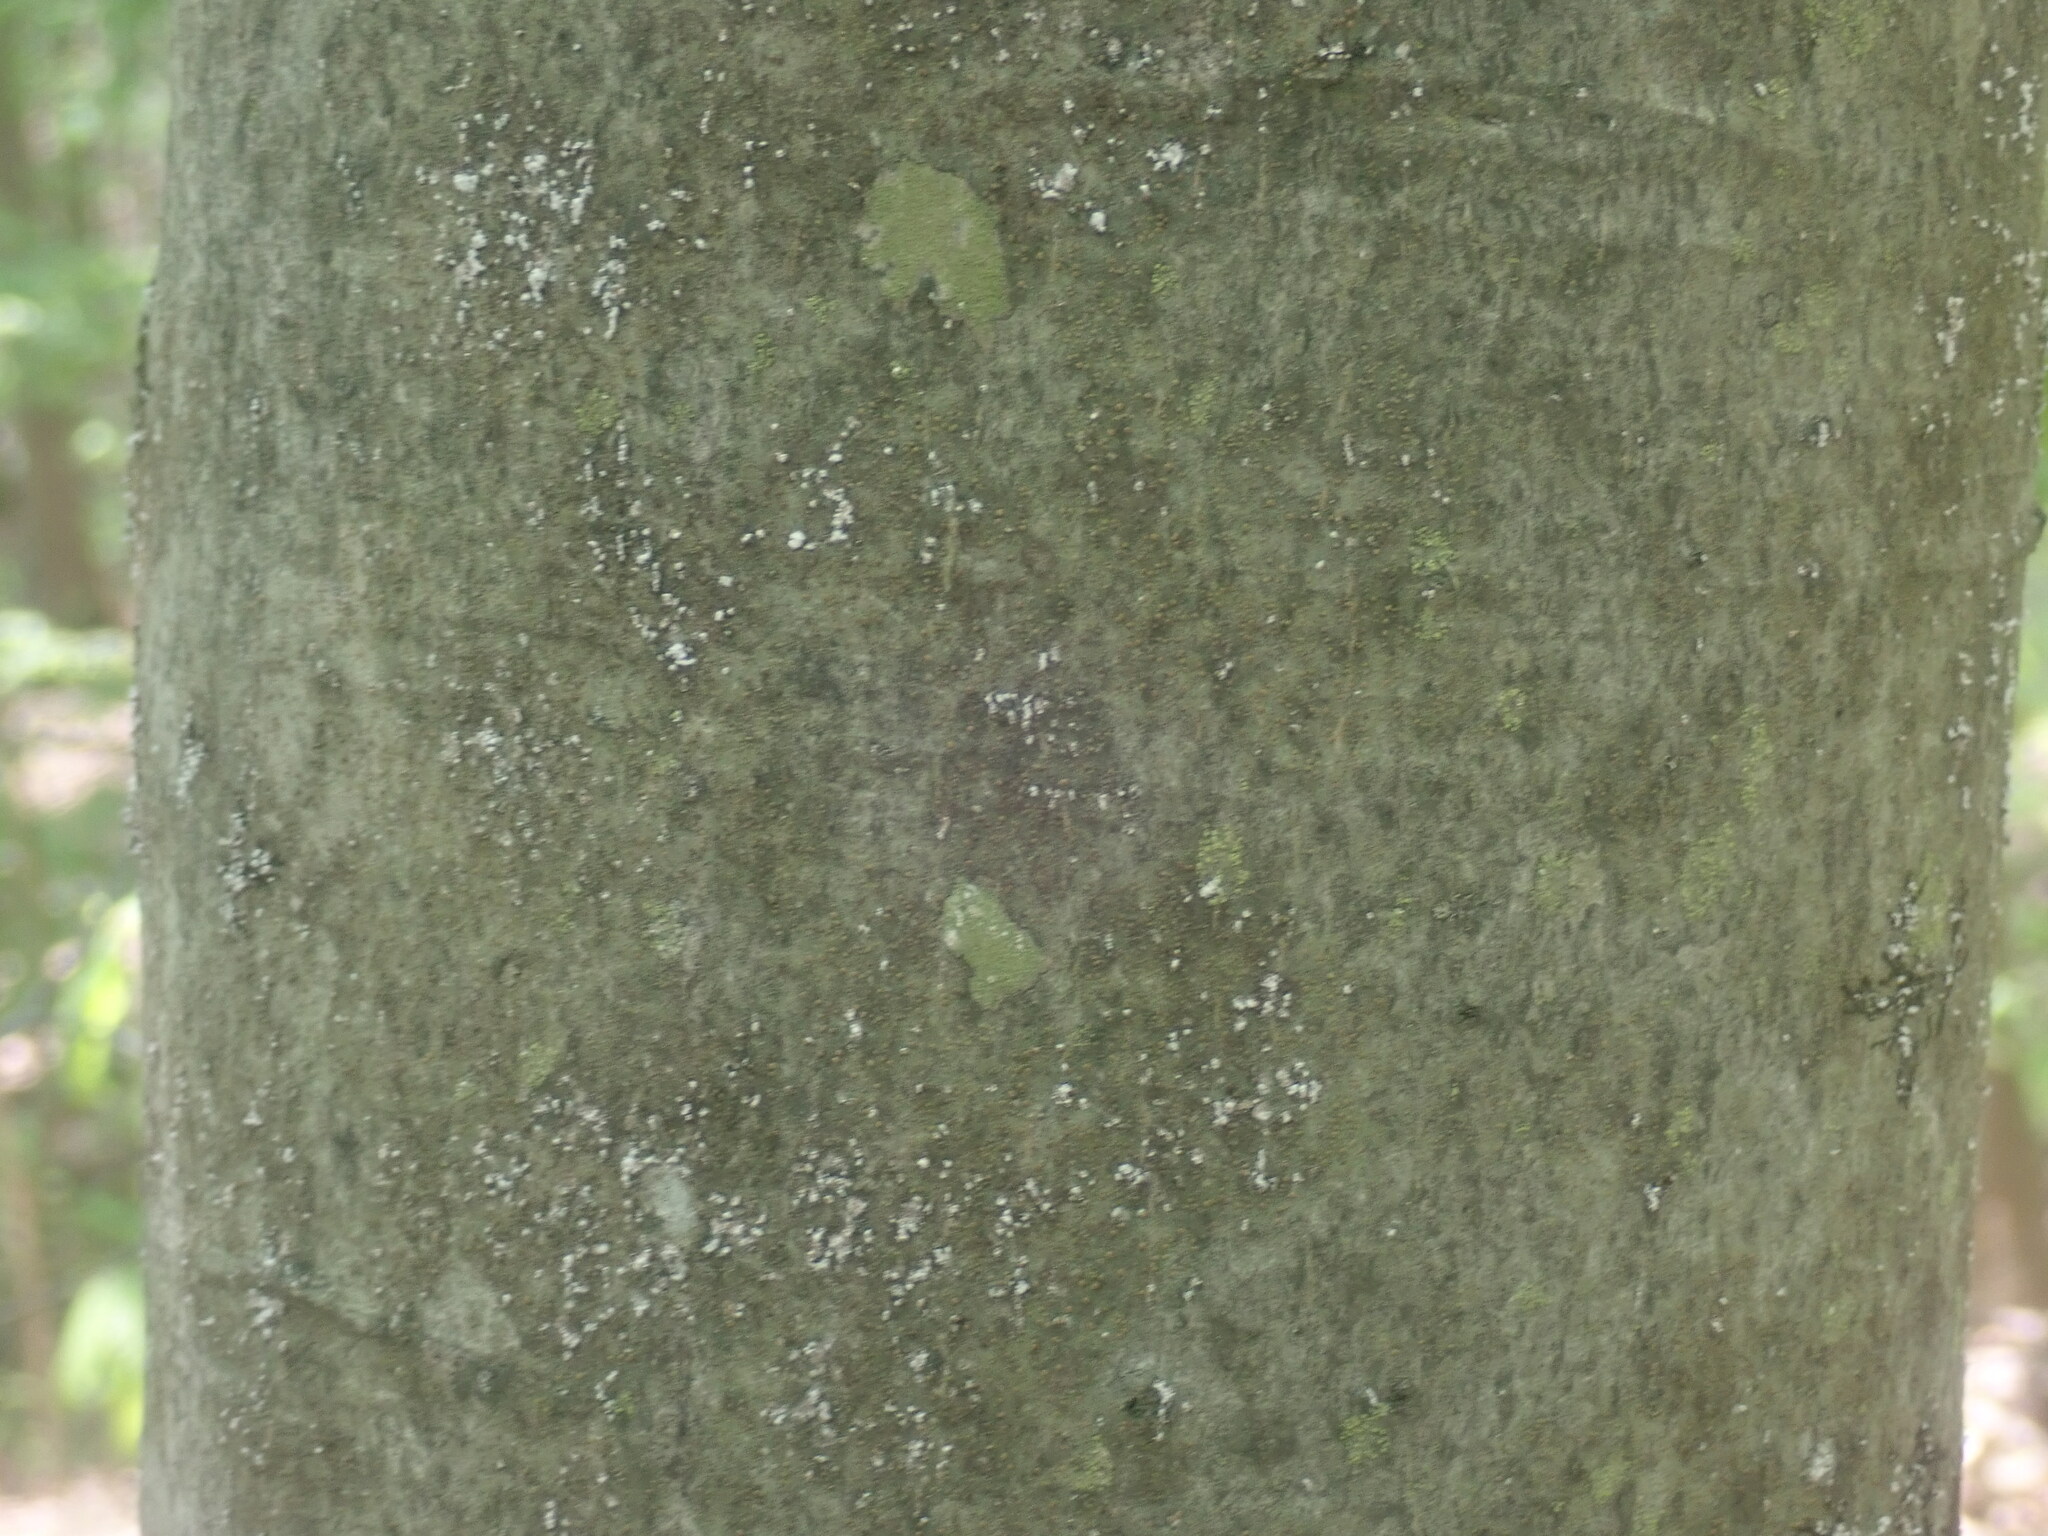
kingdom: Animalia
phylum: Arthropoda
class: Insecta
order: Hemiptera
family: Eriococcidae
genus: Cryptococcus
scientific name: Cryptococcus fagisuga
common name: Beech scale
